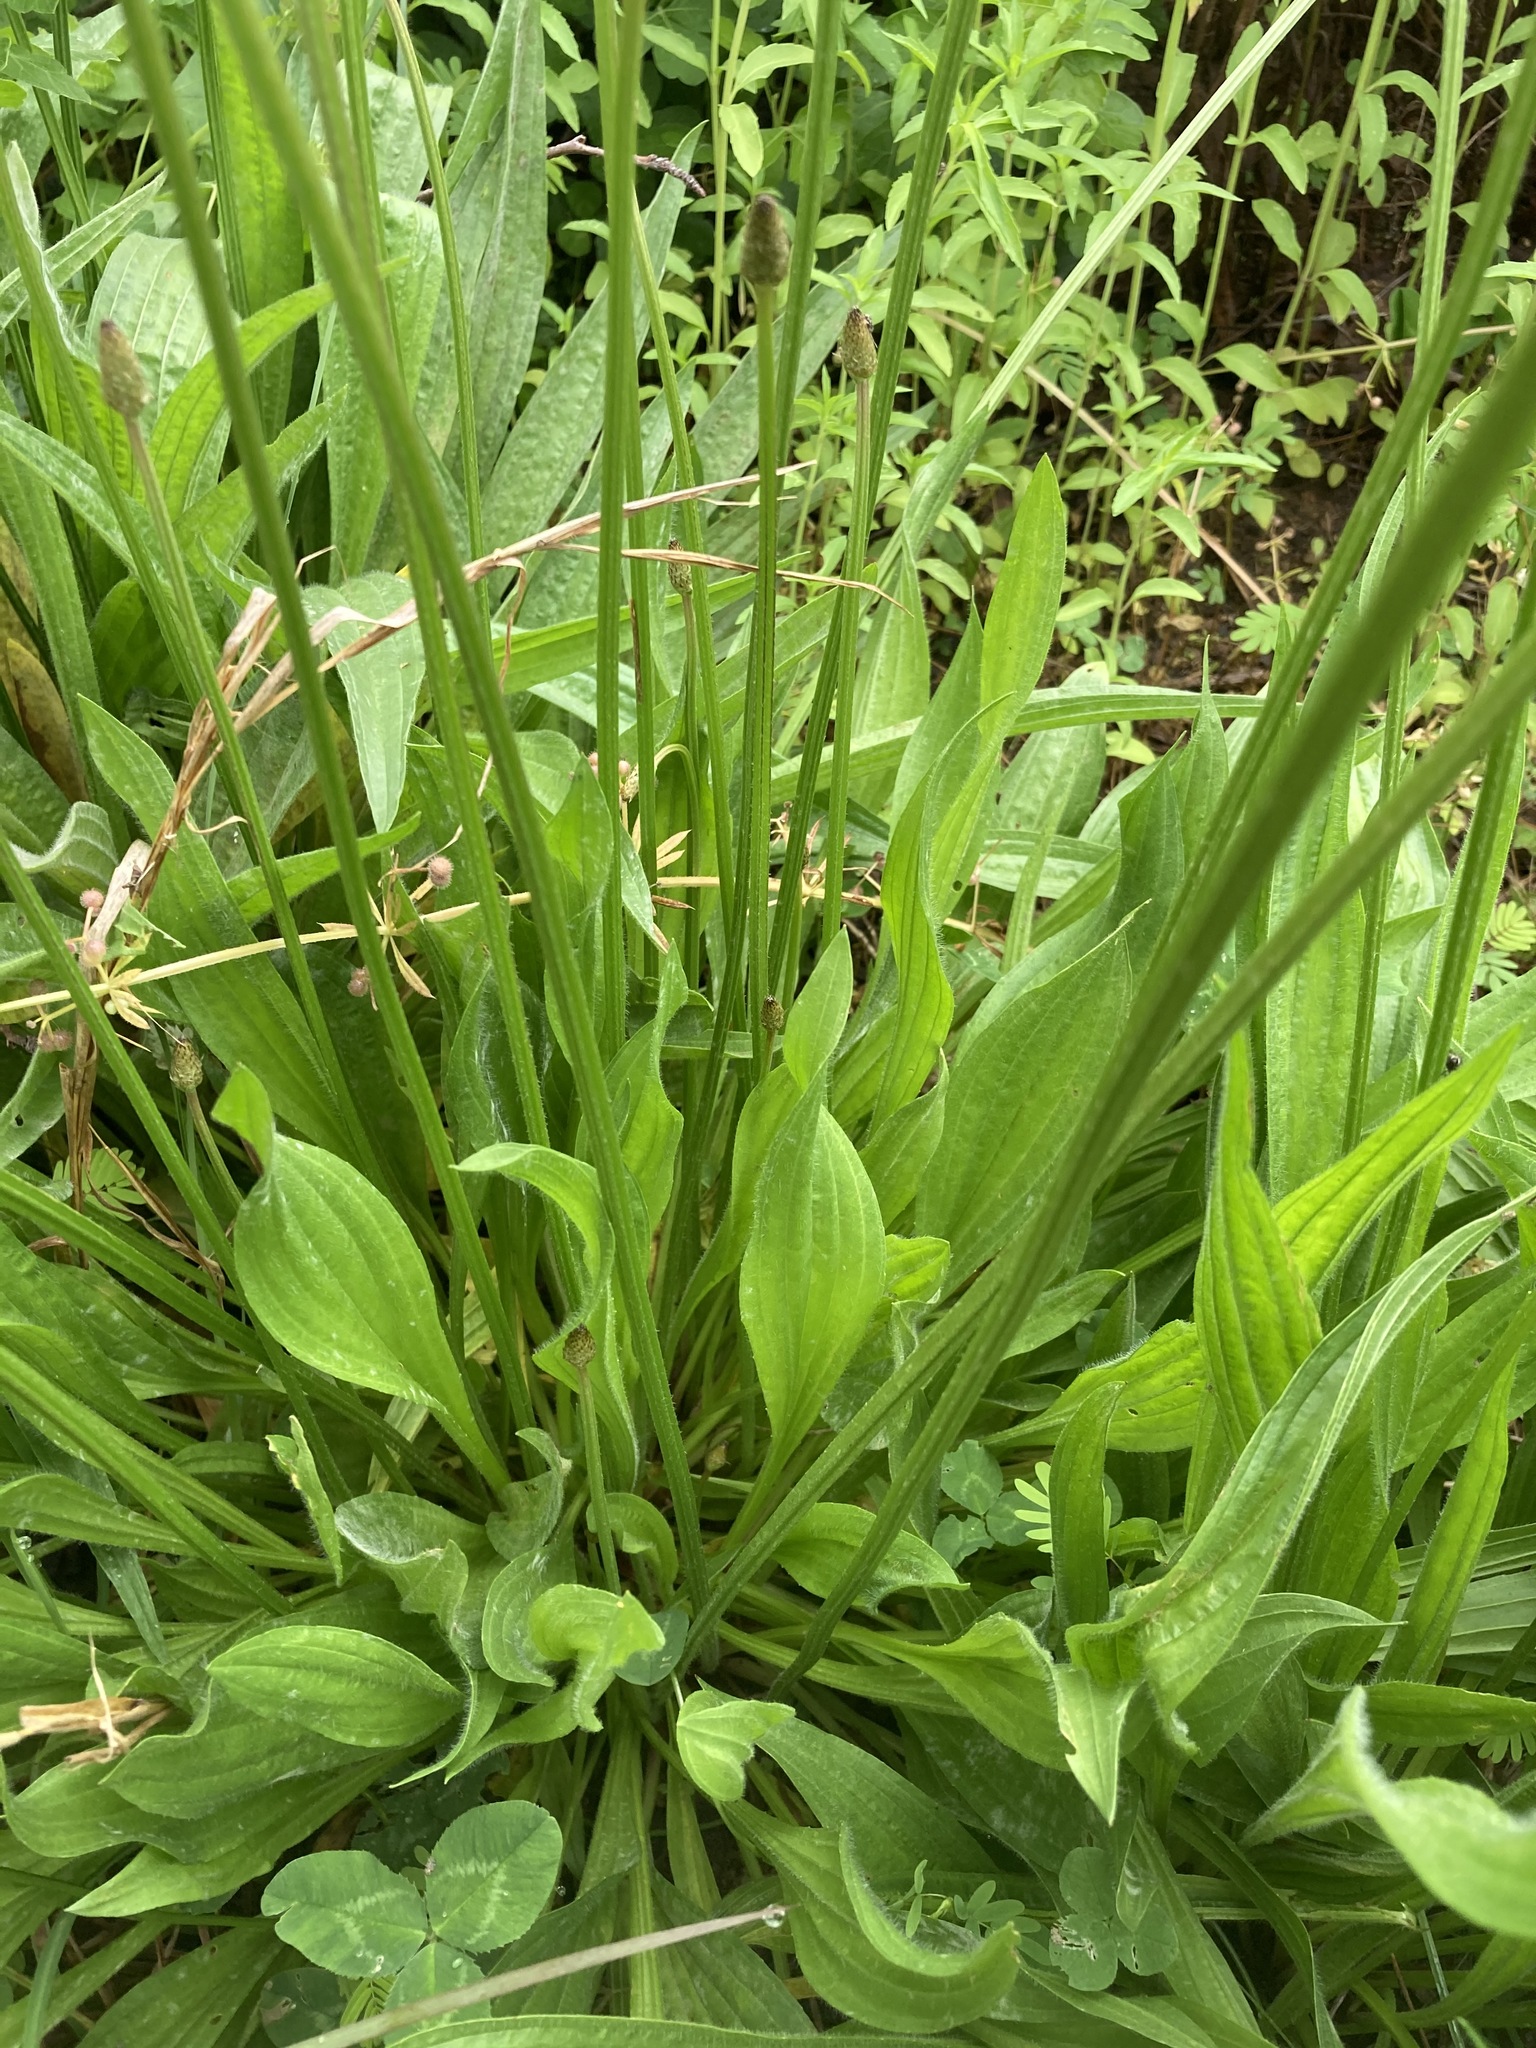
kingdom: Plantae
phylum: Tracheophyta
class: Magnoliopsida
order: Lamiales
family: Plantaginaceae
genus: Plantago
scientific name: Plantago lanceolata
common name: Ribwort plantain
